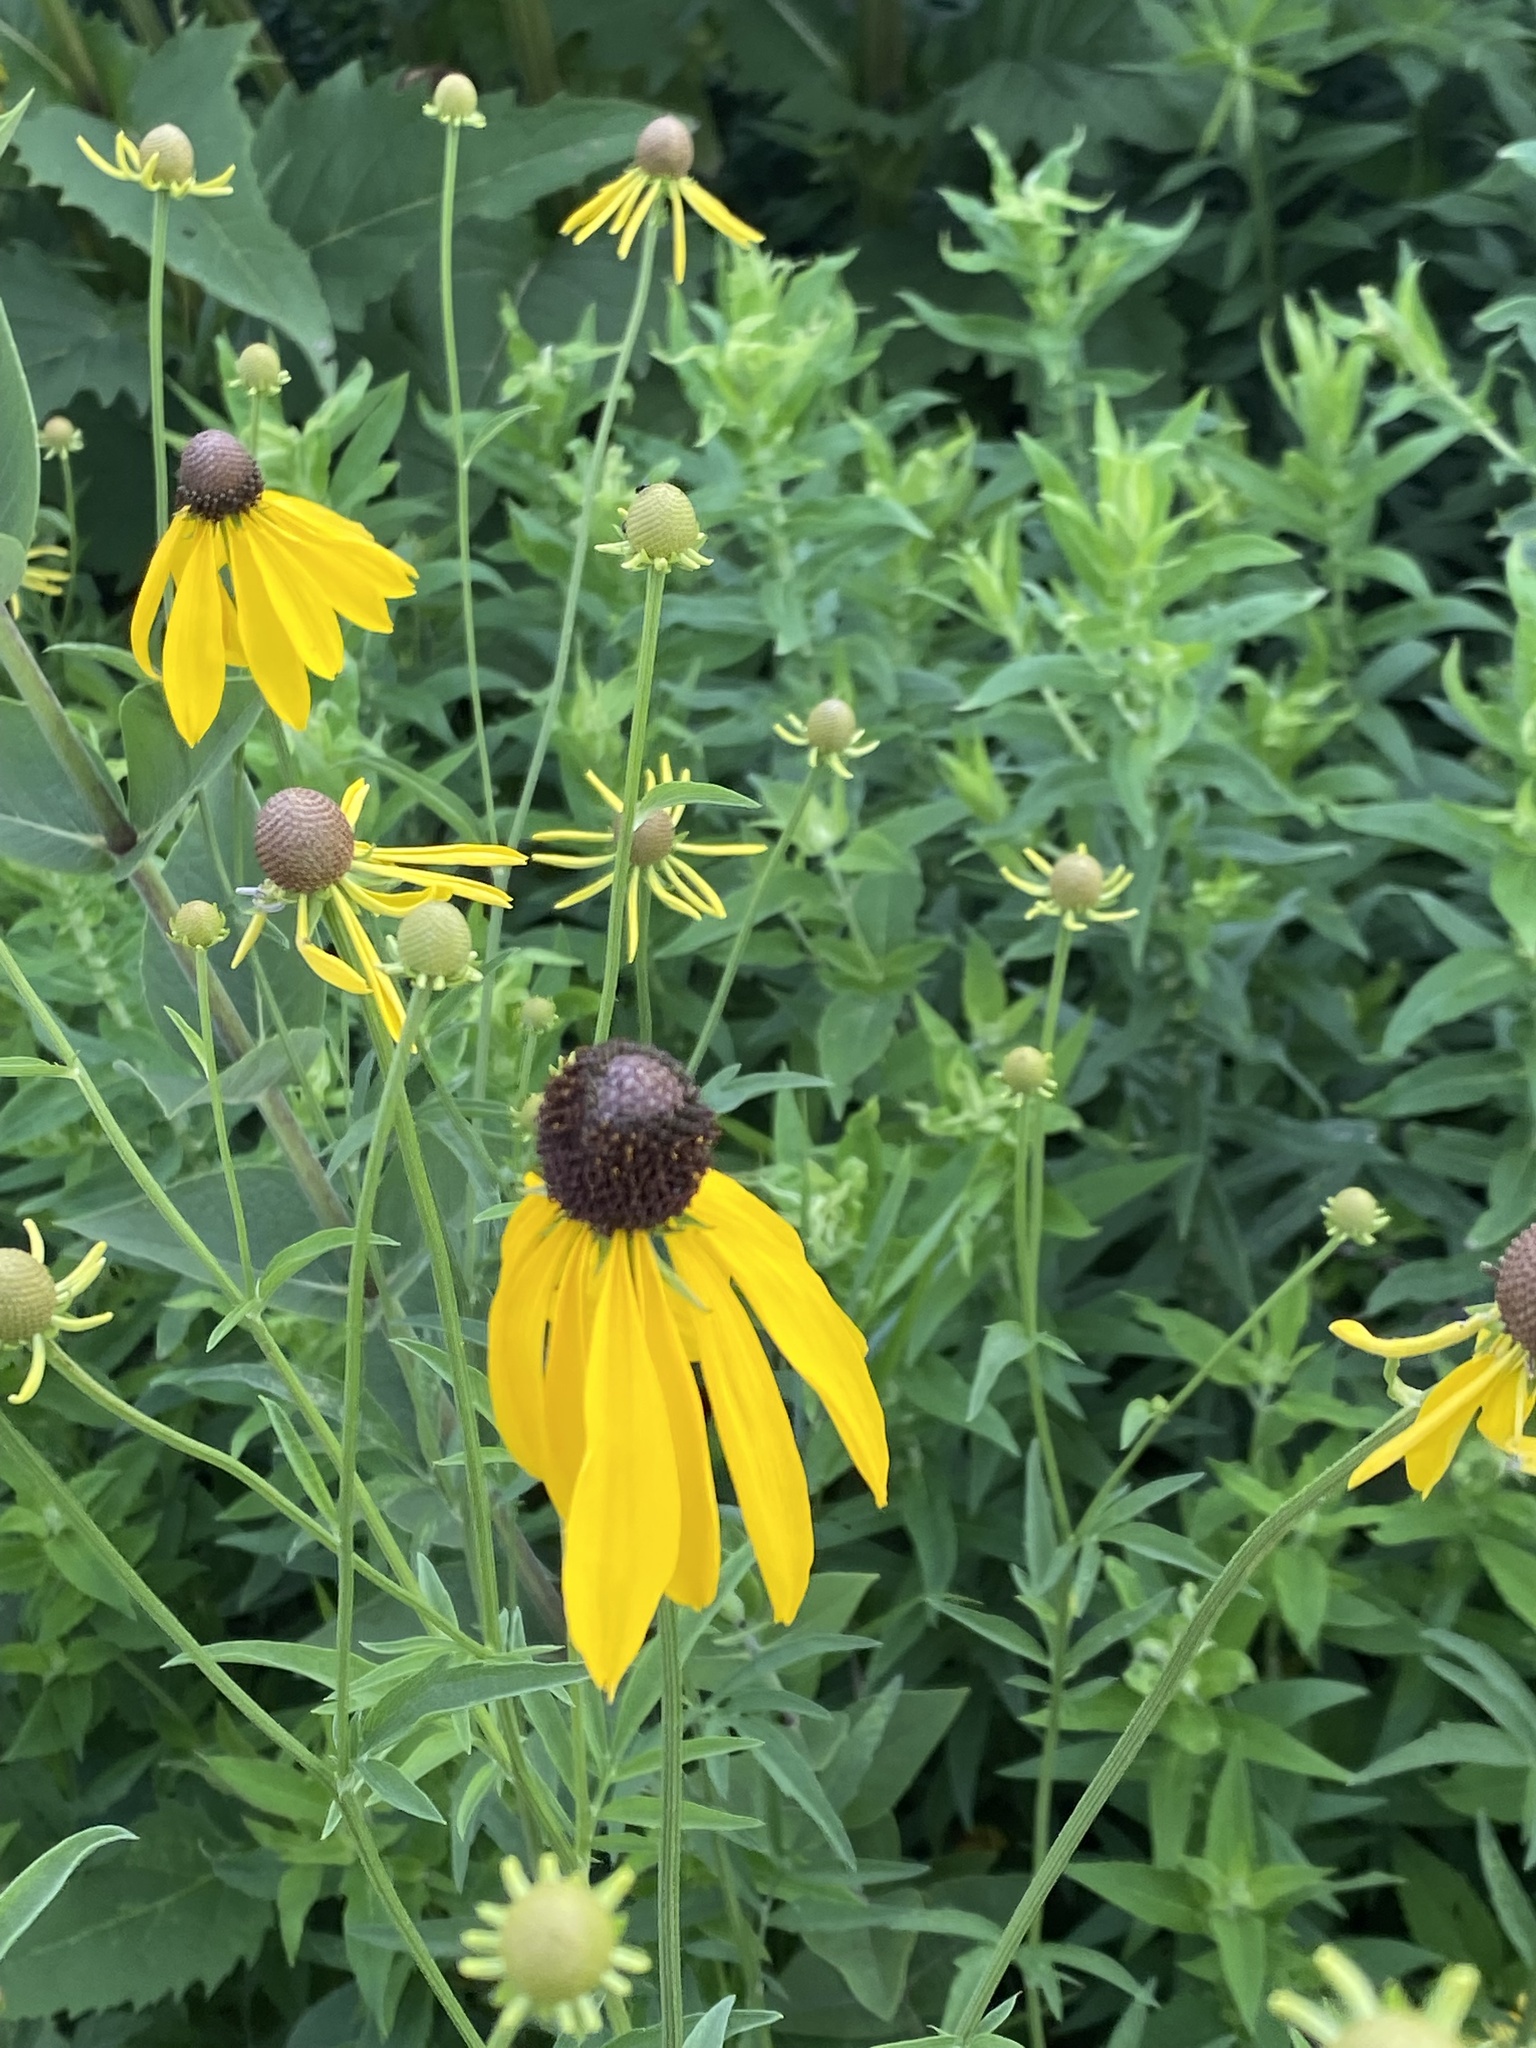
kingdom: Plantae
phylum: Tracheophyta
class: Magnoliopsida
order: Asterales
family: Asteraceae
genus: Ratibida
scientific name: Ratibida pinnata
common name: Drooping prairie-coneflower
